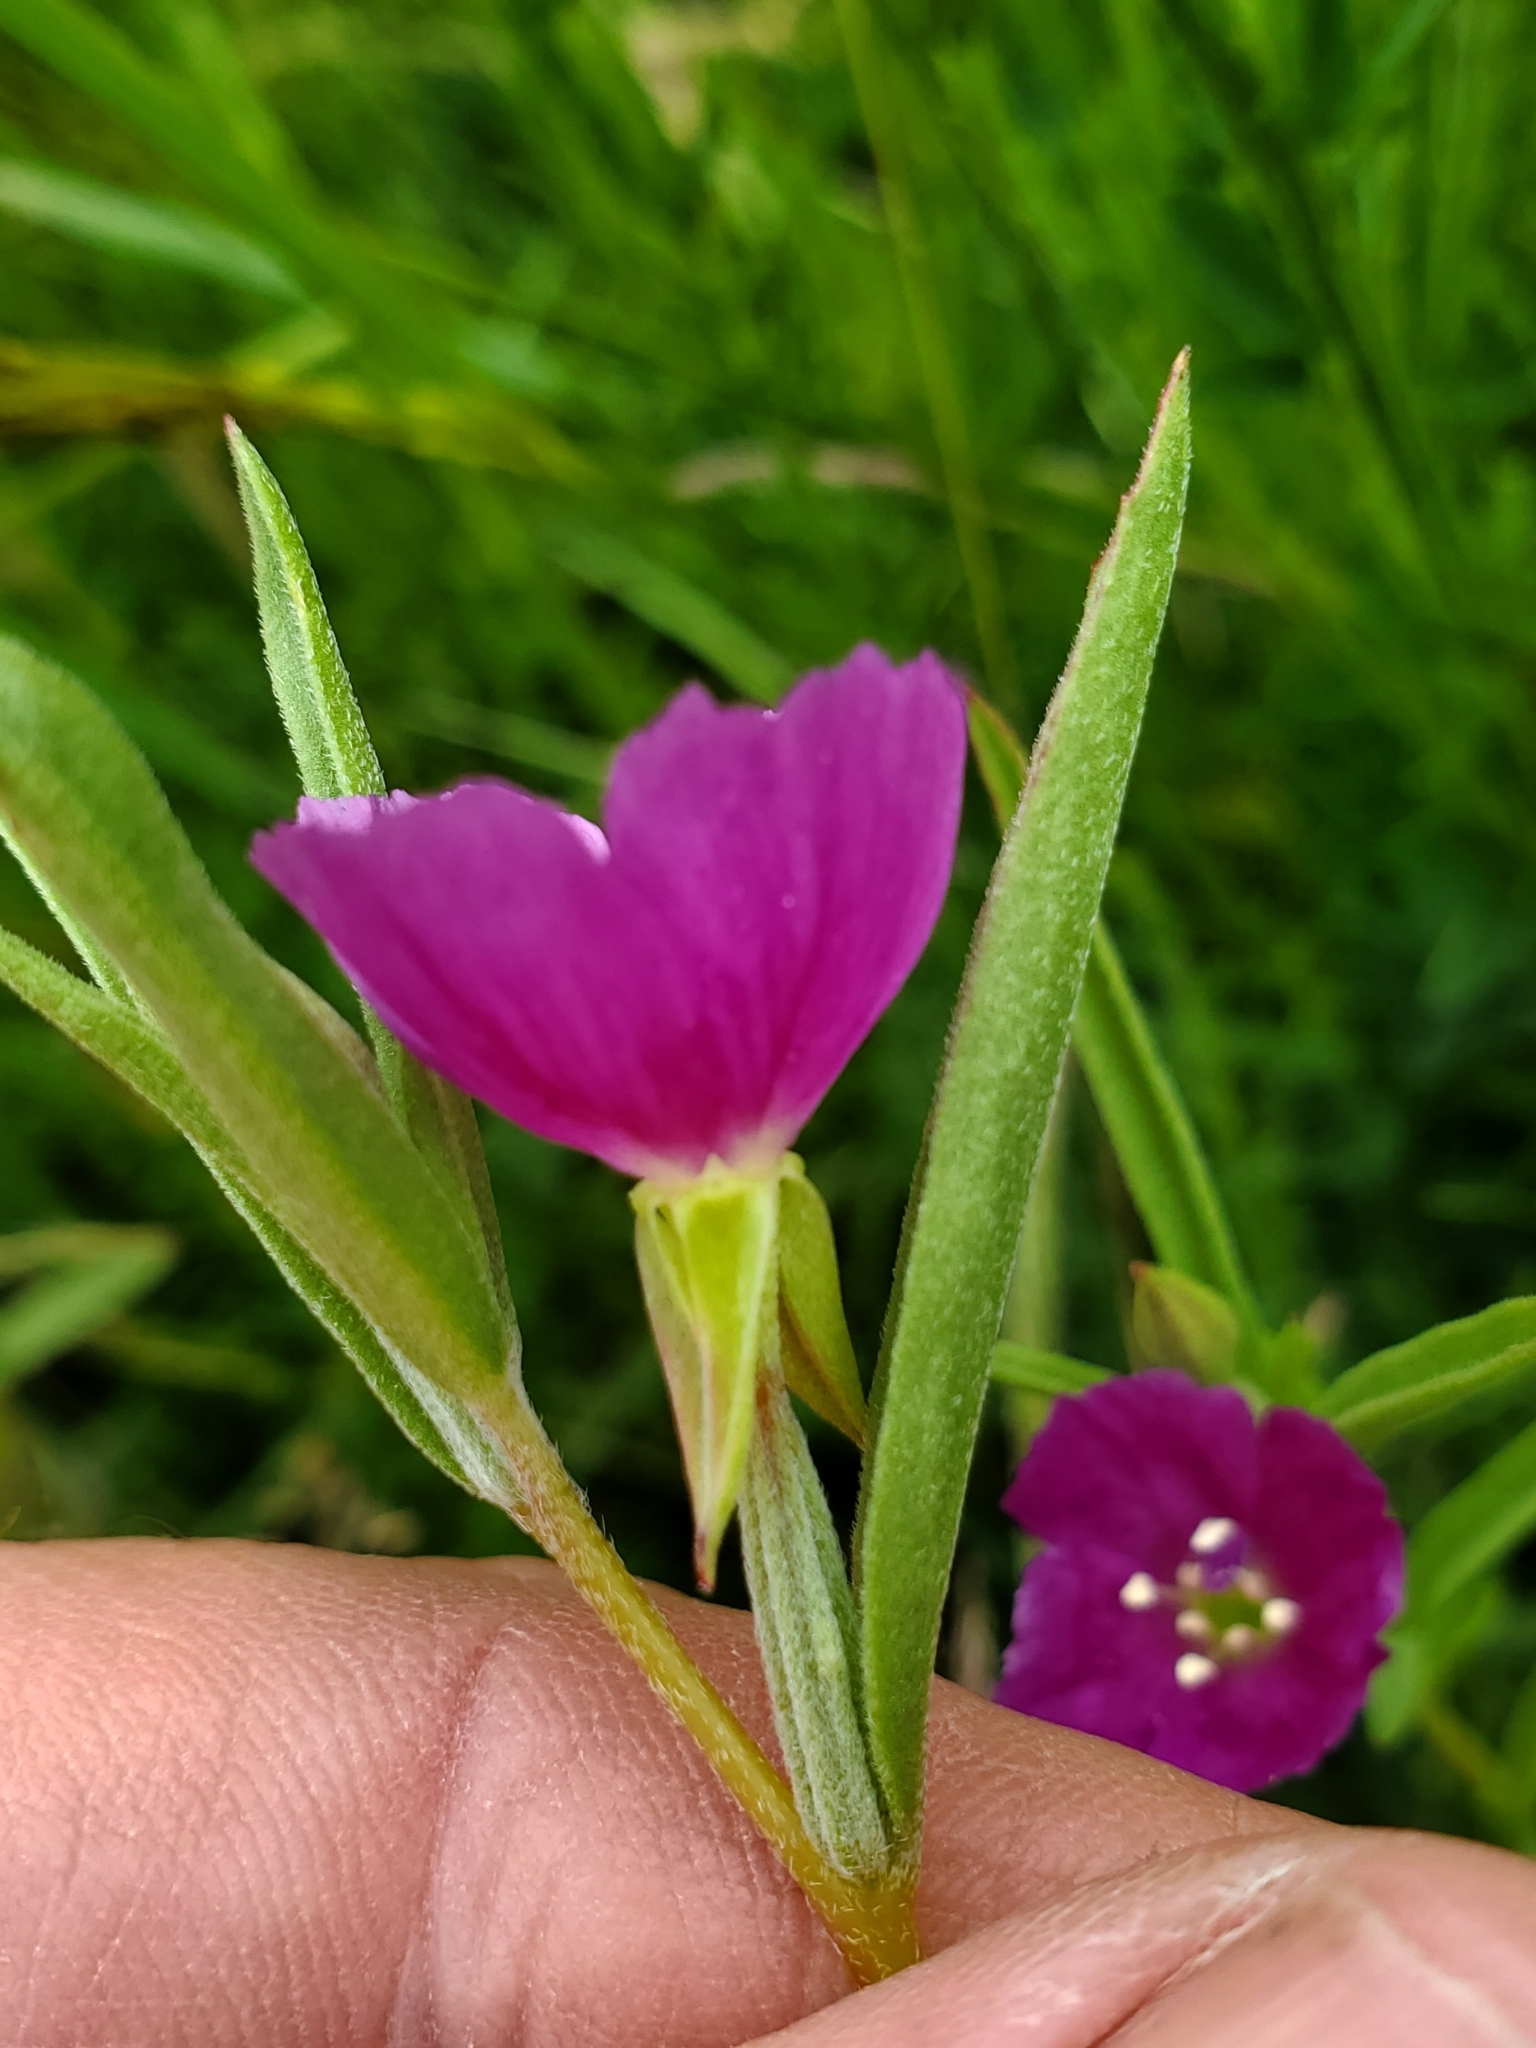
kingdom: Plantae
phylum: Tracheophyta
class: Magnoliopsida
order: Myrtales
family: Onagraceae
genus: Clarkia
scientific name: Clarkia purpurea
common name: Purple clarkia
